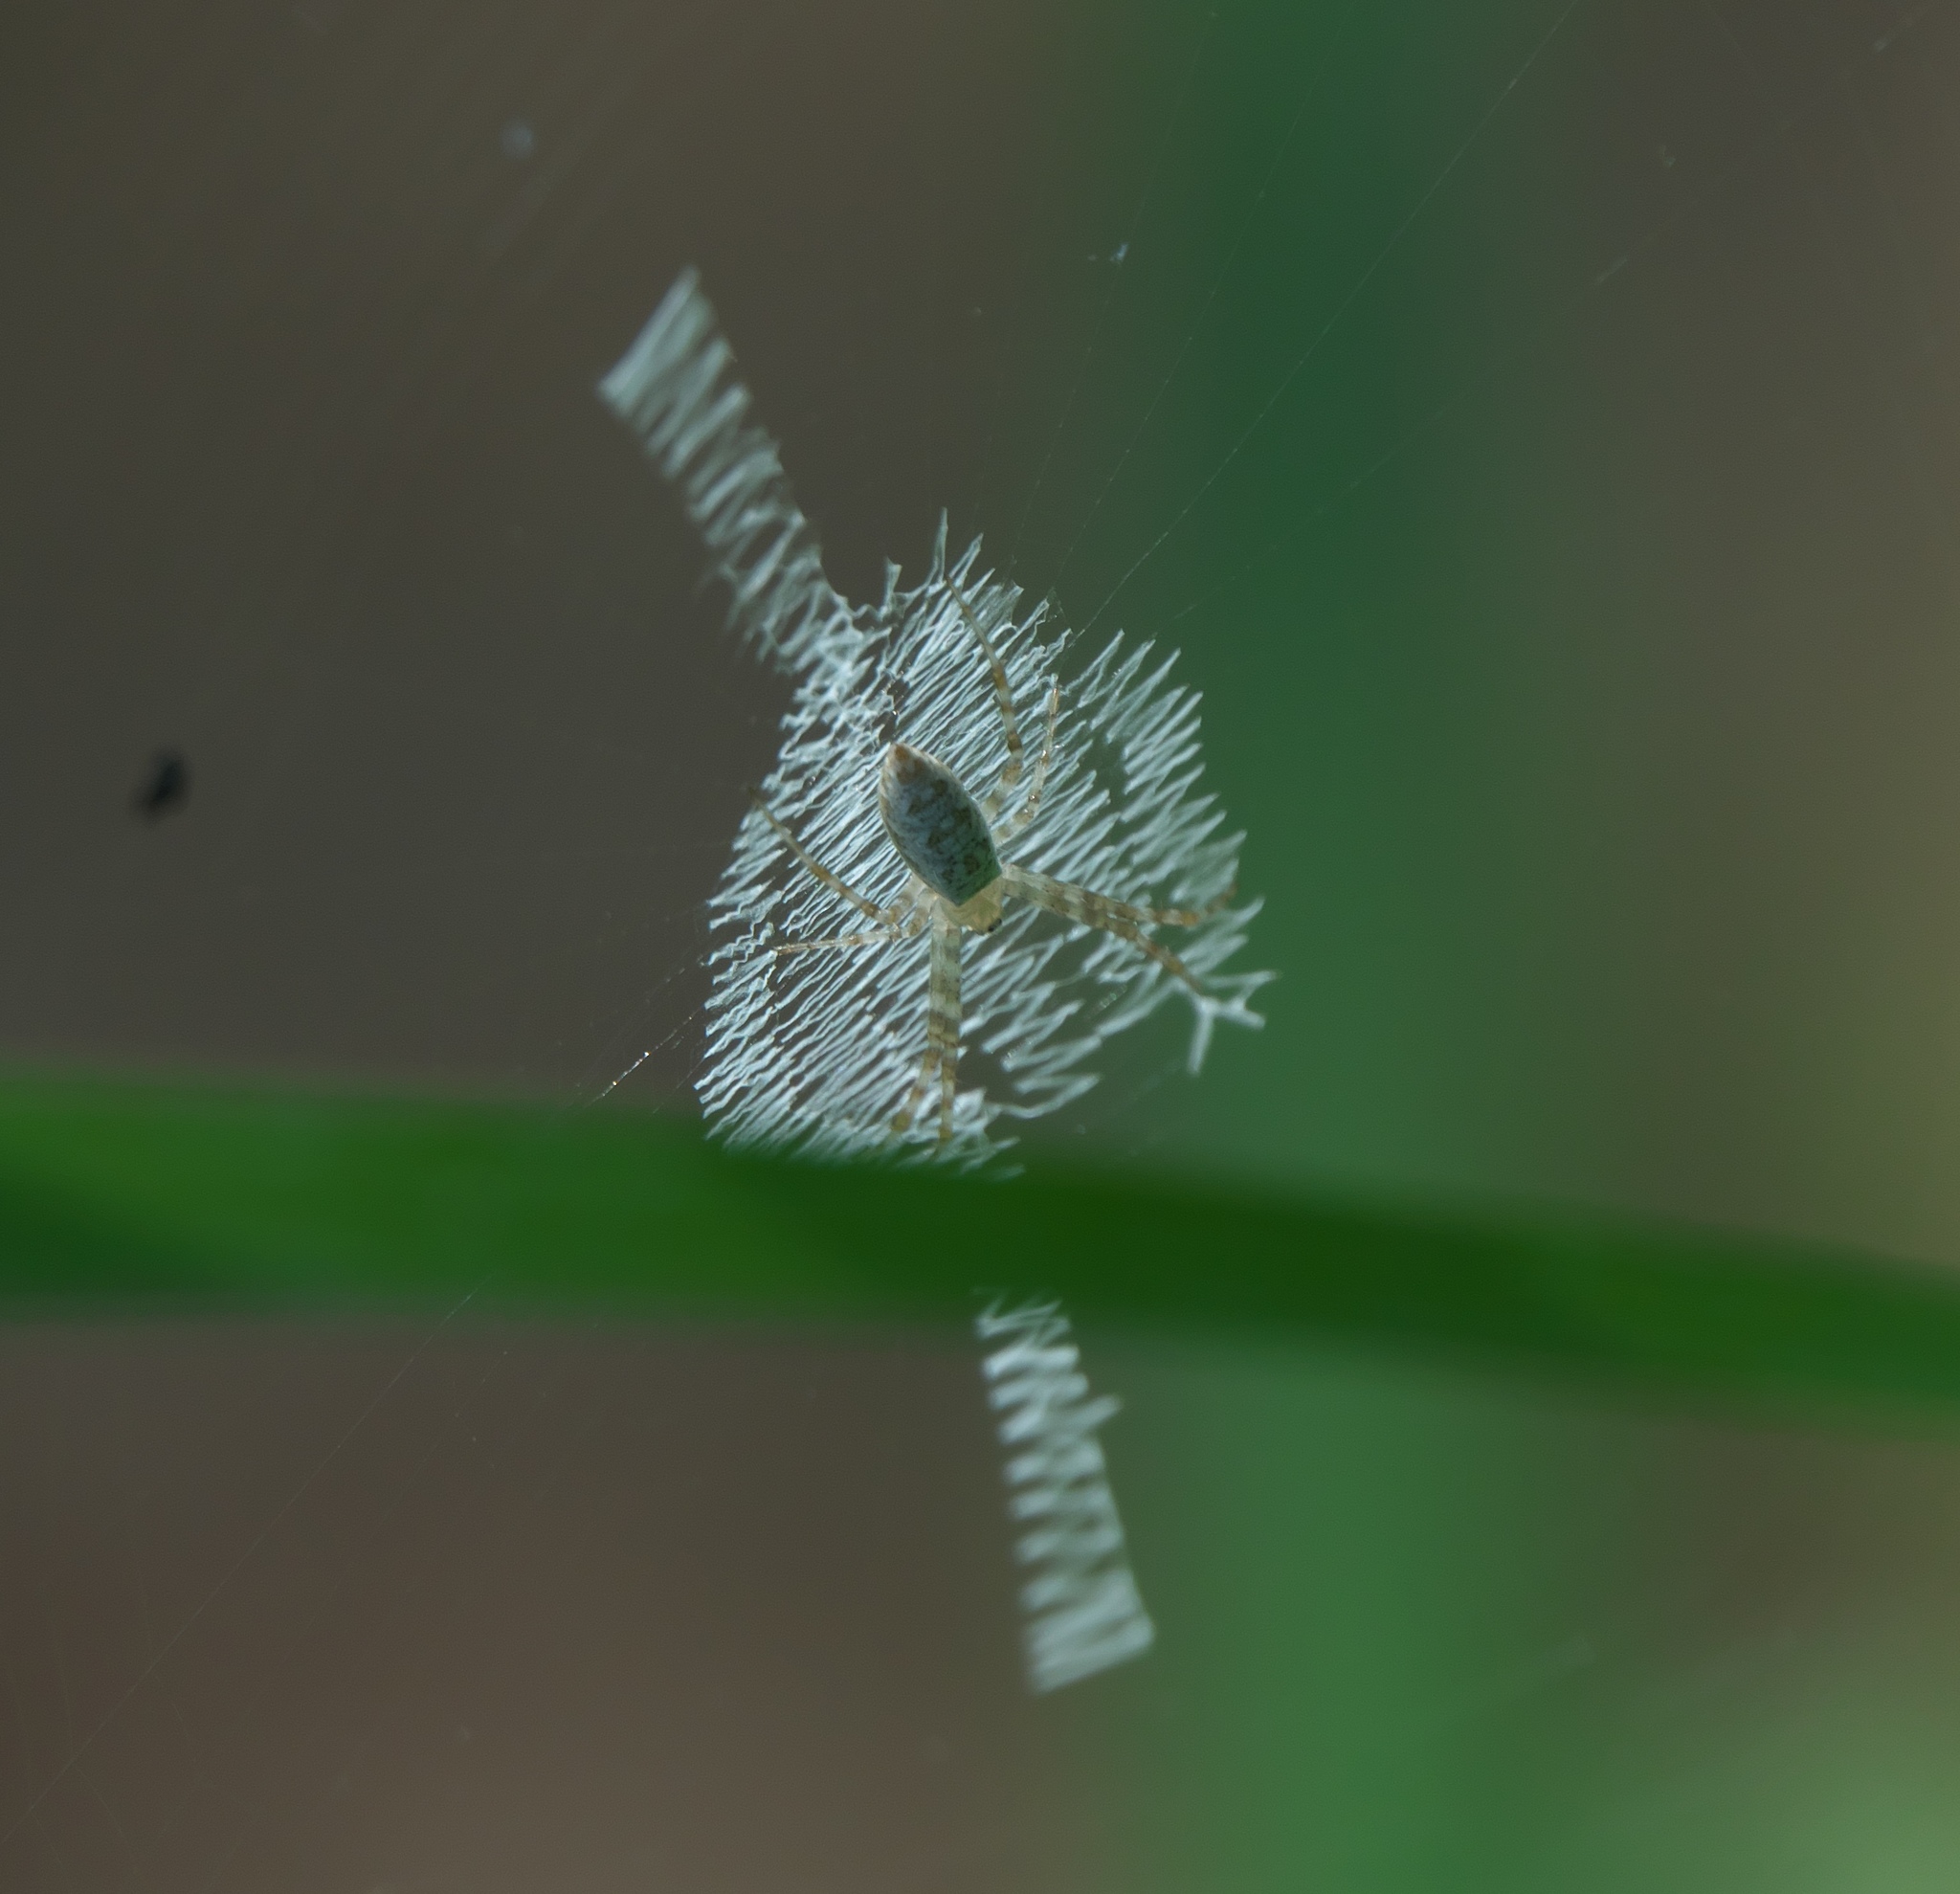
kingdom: Animalia
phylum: Arthropoda
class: Arachnida
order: Araneae
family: Araneidae
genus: Argiope
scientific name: Argiope aurantia
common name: Orb weavers
